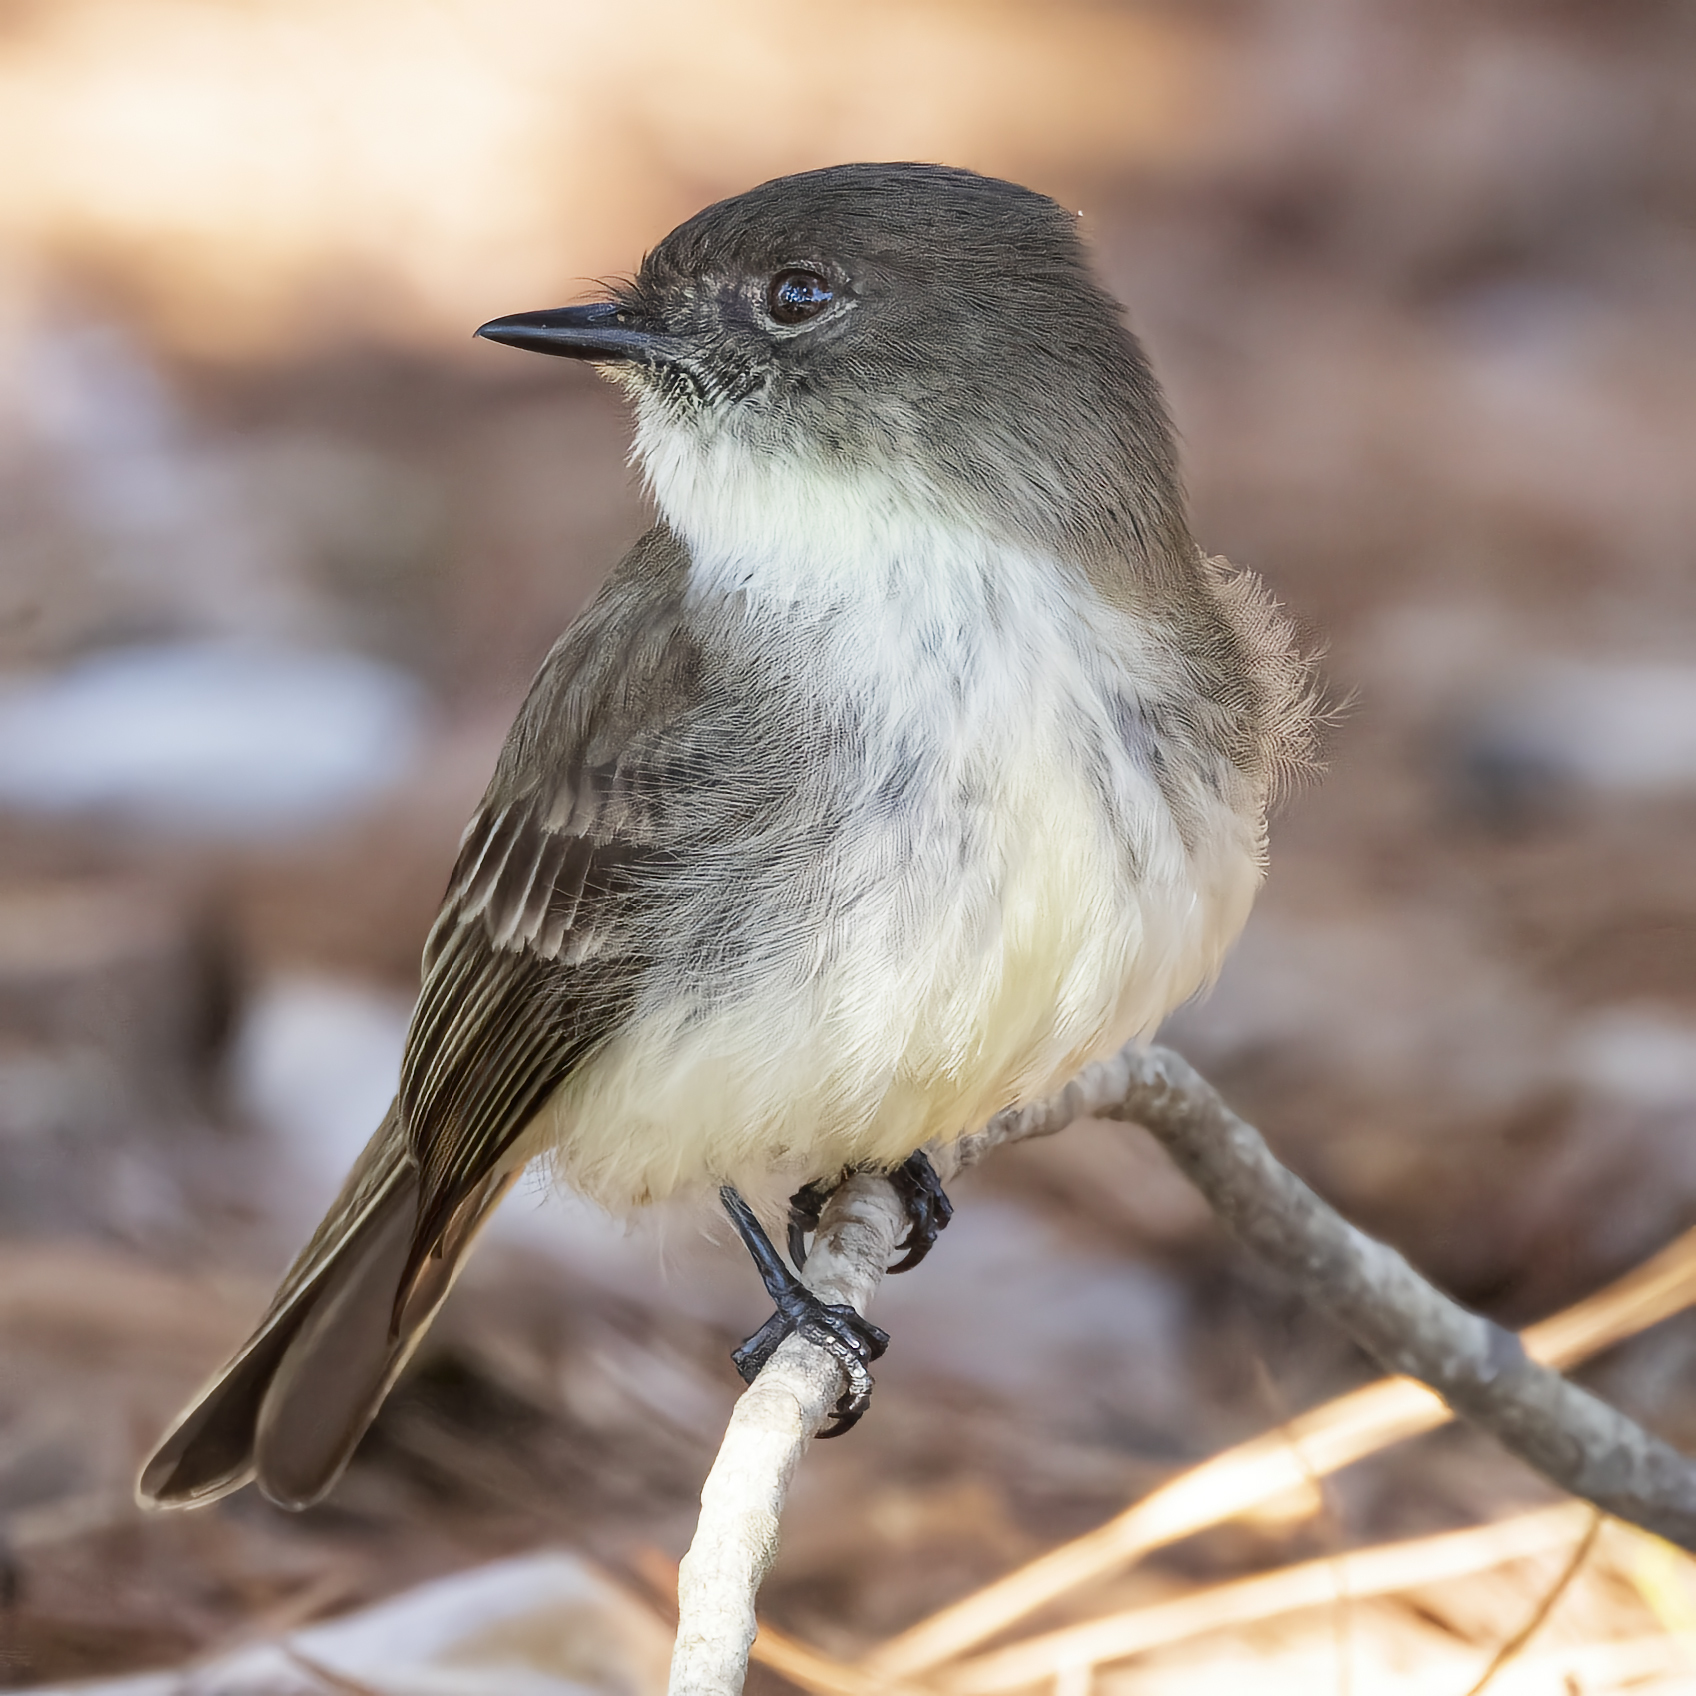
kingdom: Animalia
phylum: Chordata
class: Aves
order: Passeriformes
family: Tyrannidae
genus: Sayornis
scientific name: Sayornis phoebe
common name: Eastern phoebe
